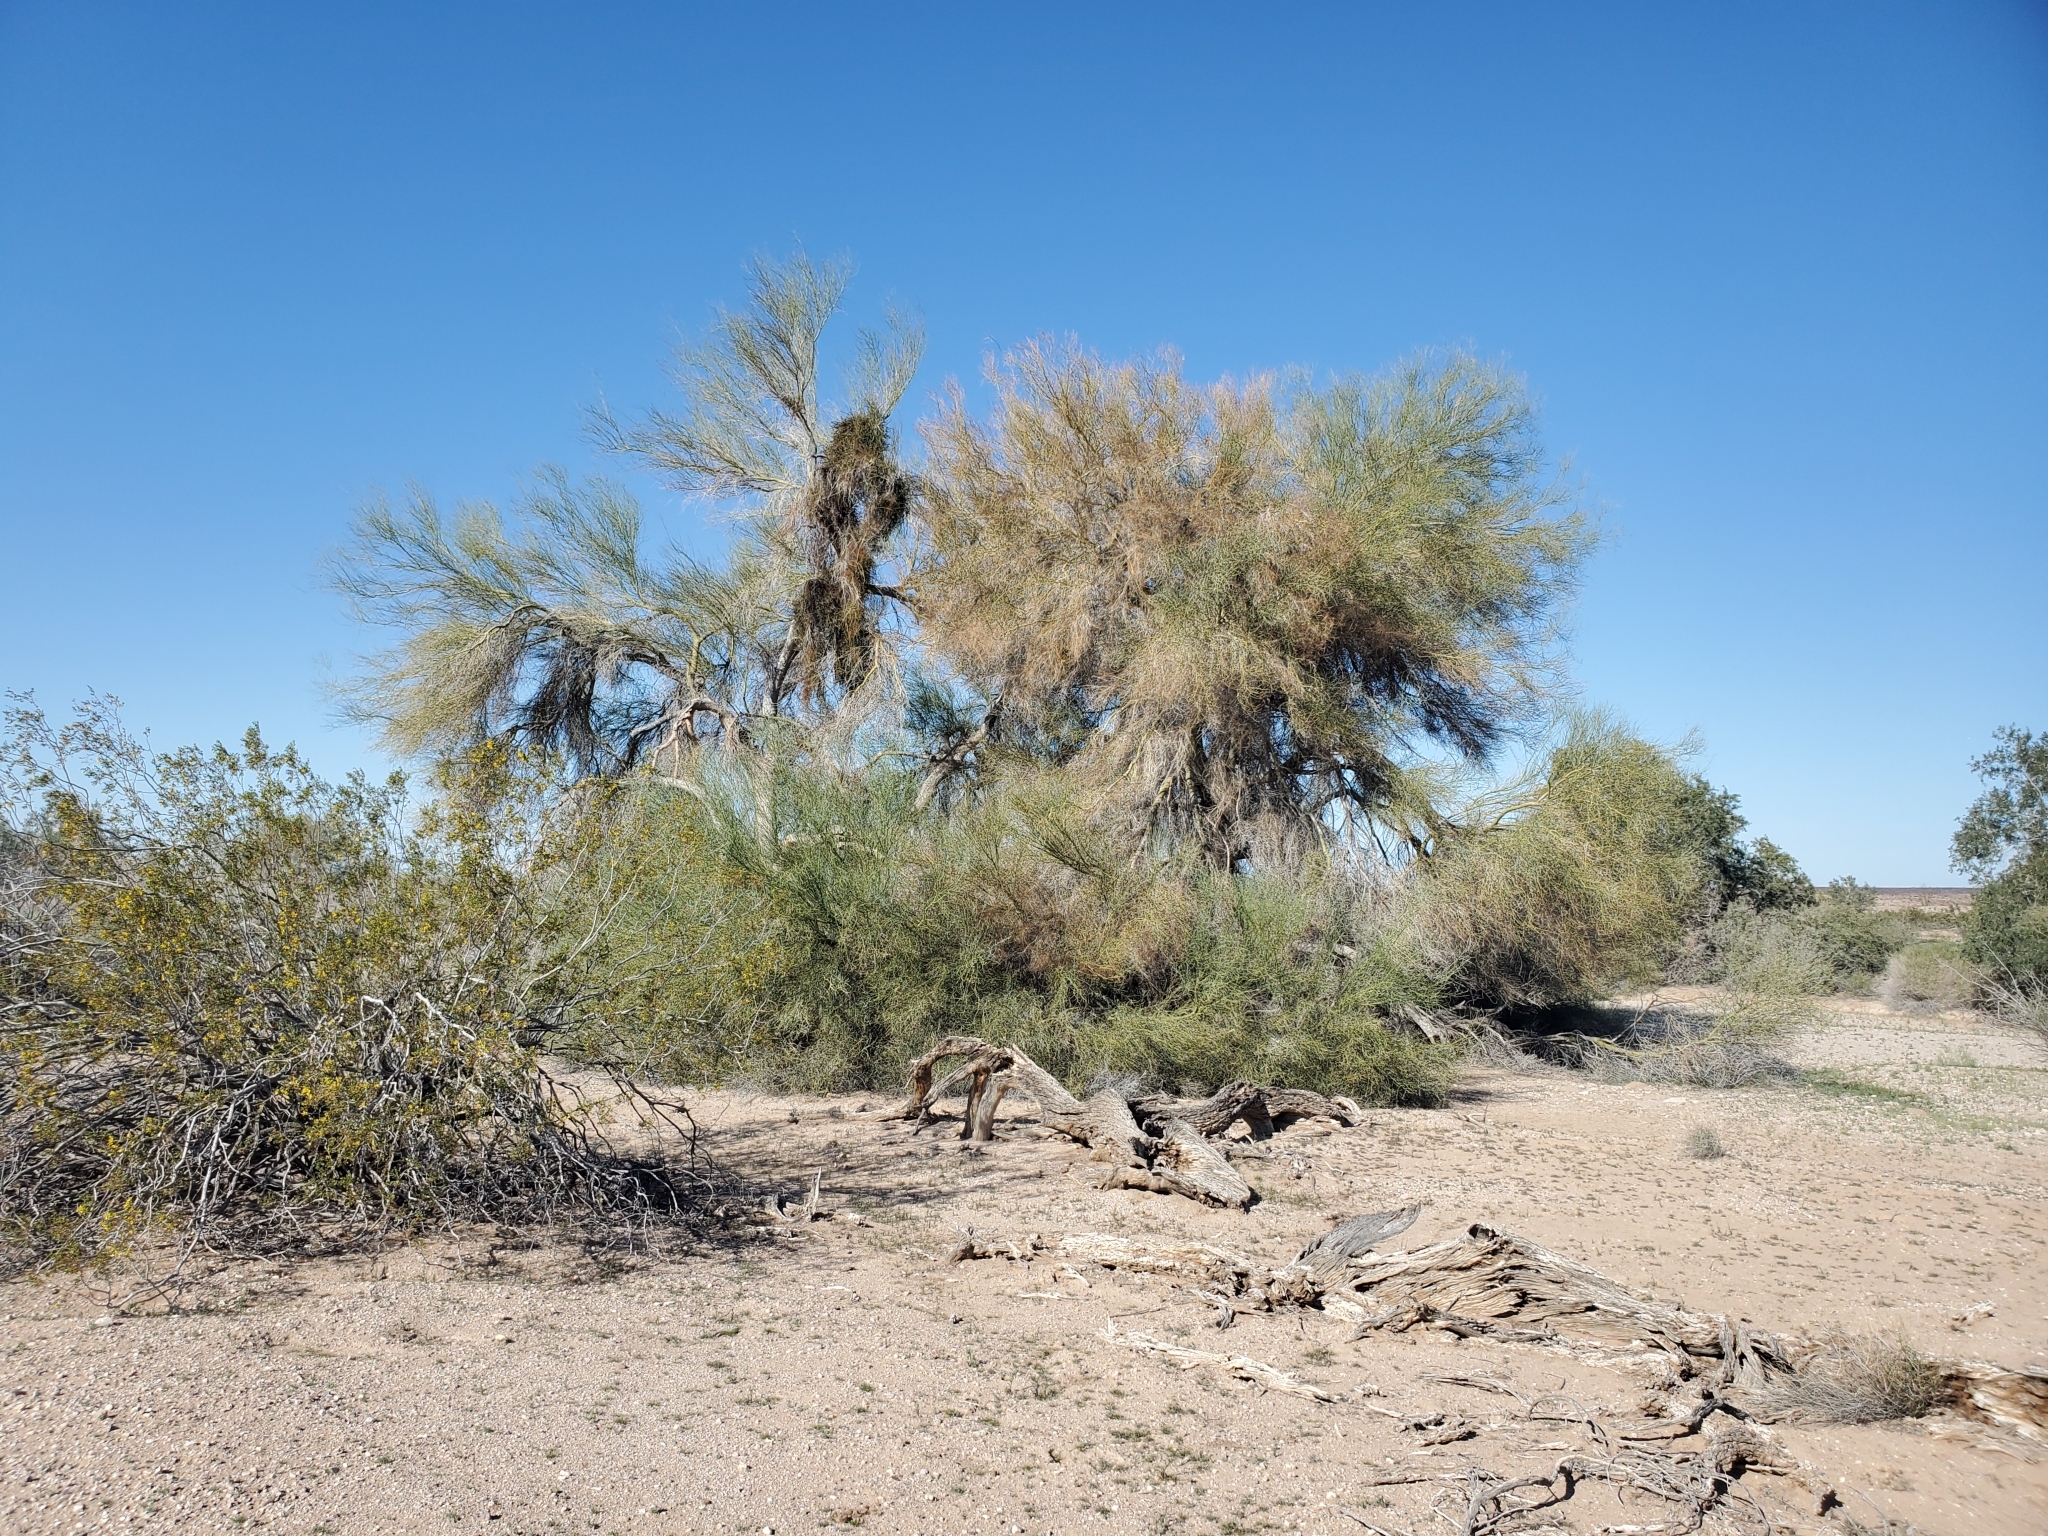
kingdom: Plantae
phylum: Tracheophyta
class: Magnoliopsida
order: Santalales
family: Viscaceae
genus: Phoradendron
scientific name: Phoradendron californicum
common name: Acacia mistletoe
